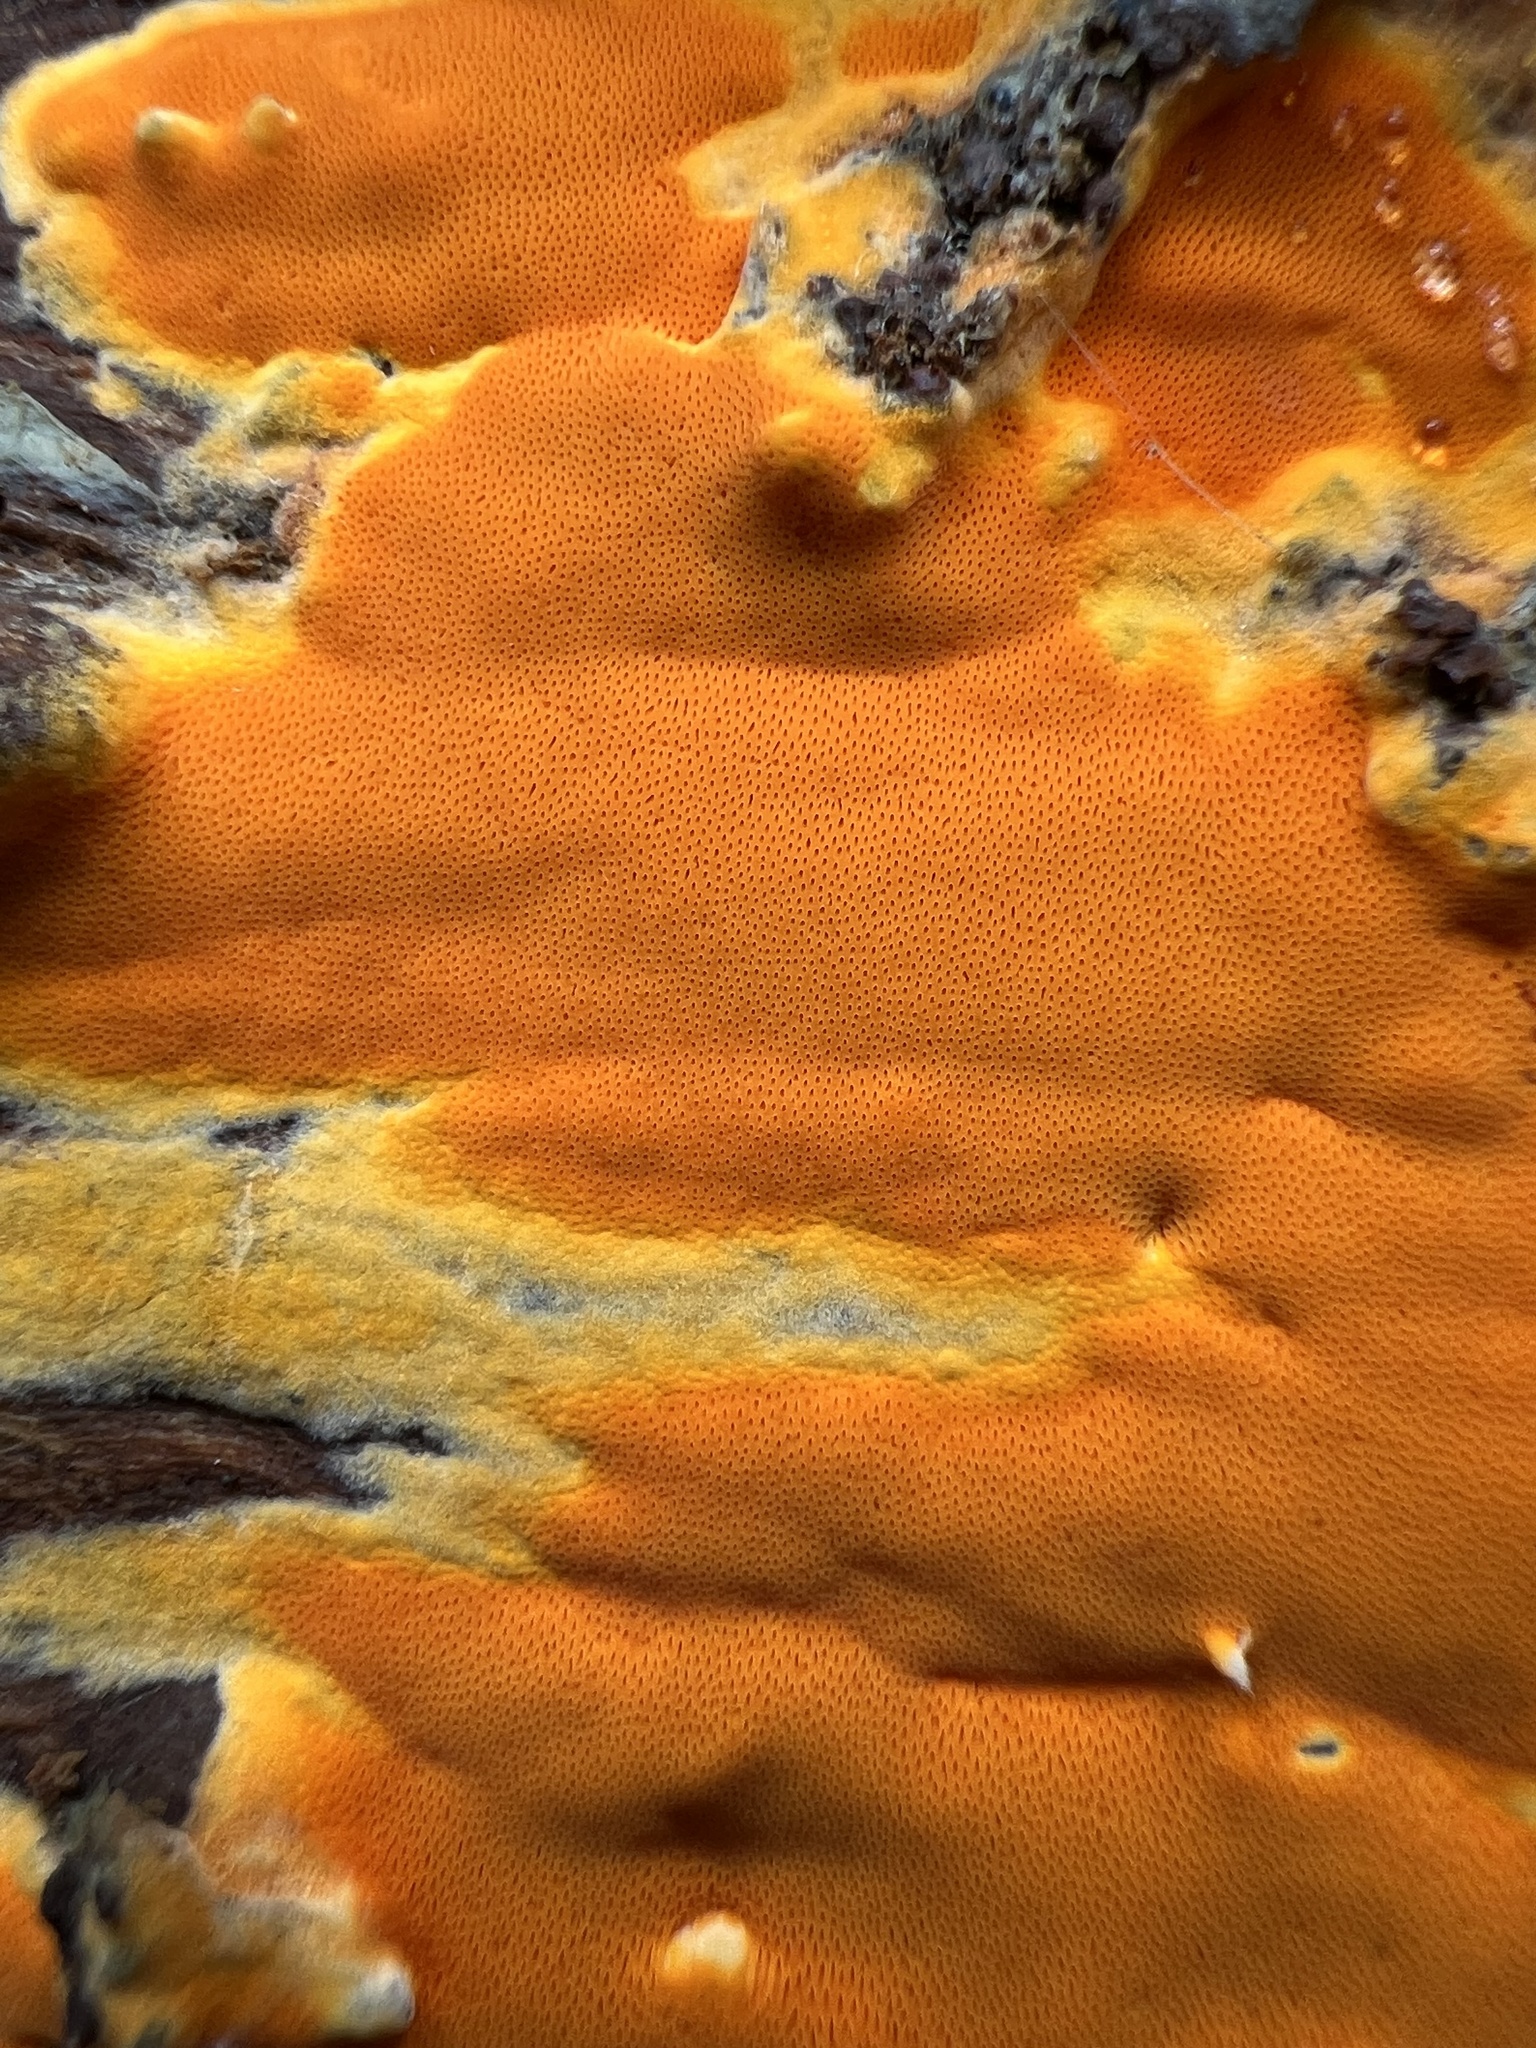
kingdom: Fungi
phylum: Basidiomycota
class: Agaricomycetes
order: Polyporales
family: Irpicaceae
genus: Ceriporia
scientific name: Ceriporia spissa
